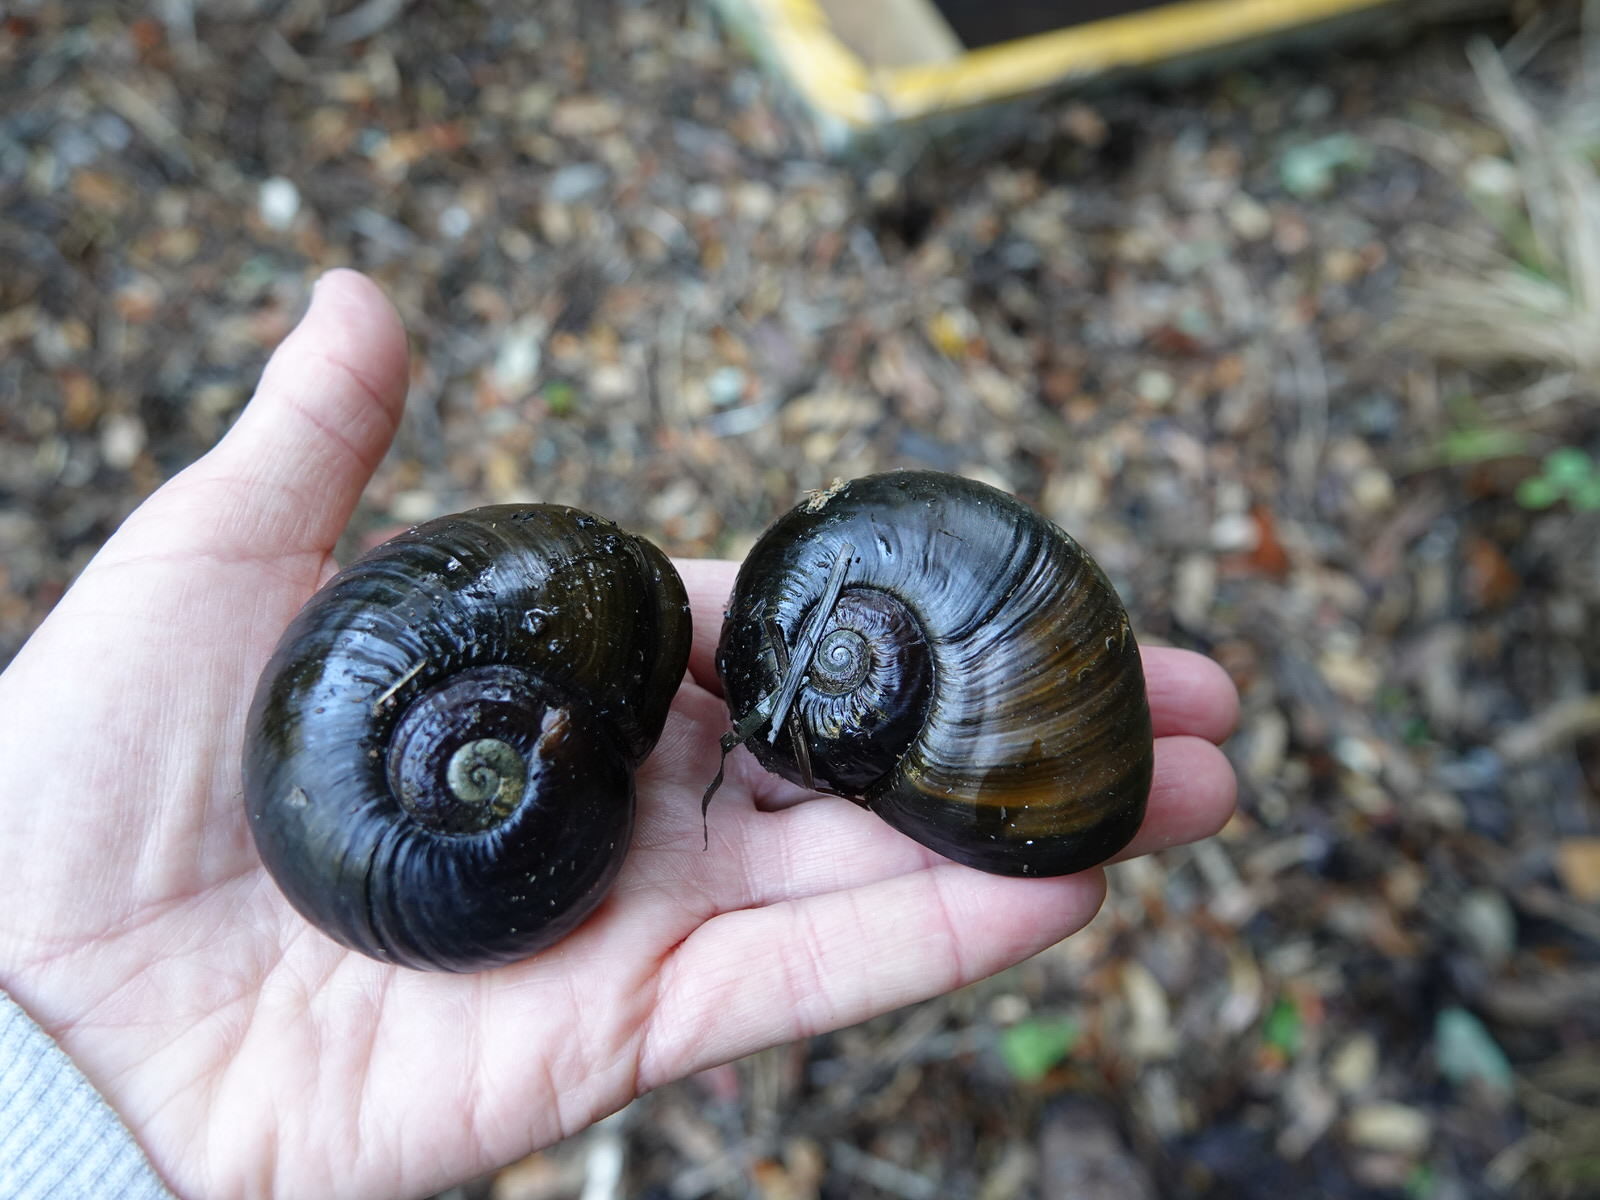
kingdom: Animalia
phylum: Mollusca
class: Gastropoda
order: Stylommatophora
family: Rhytididae
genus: Paryphanta
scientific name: Paryphanta busbyi
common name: Kauri snail
